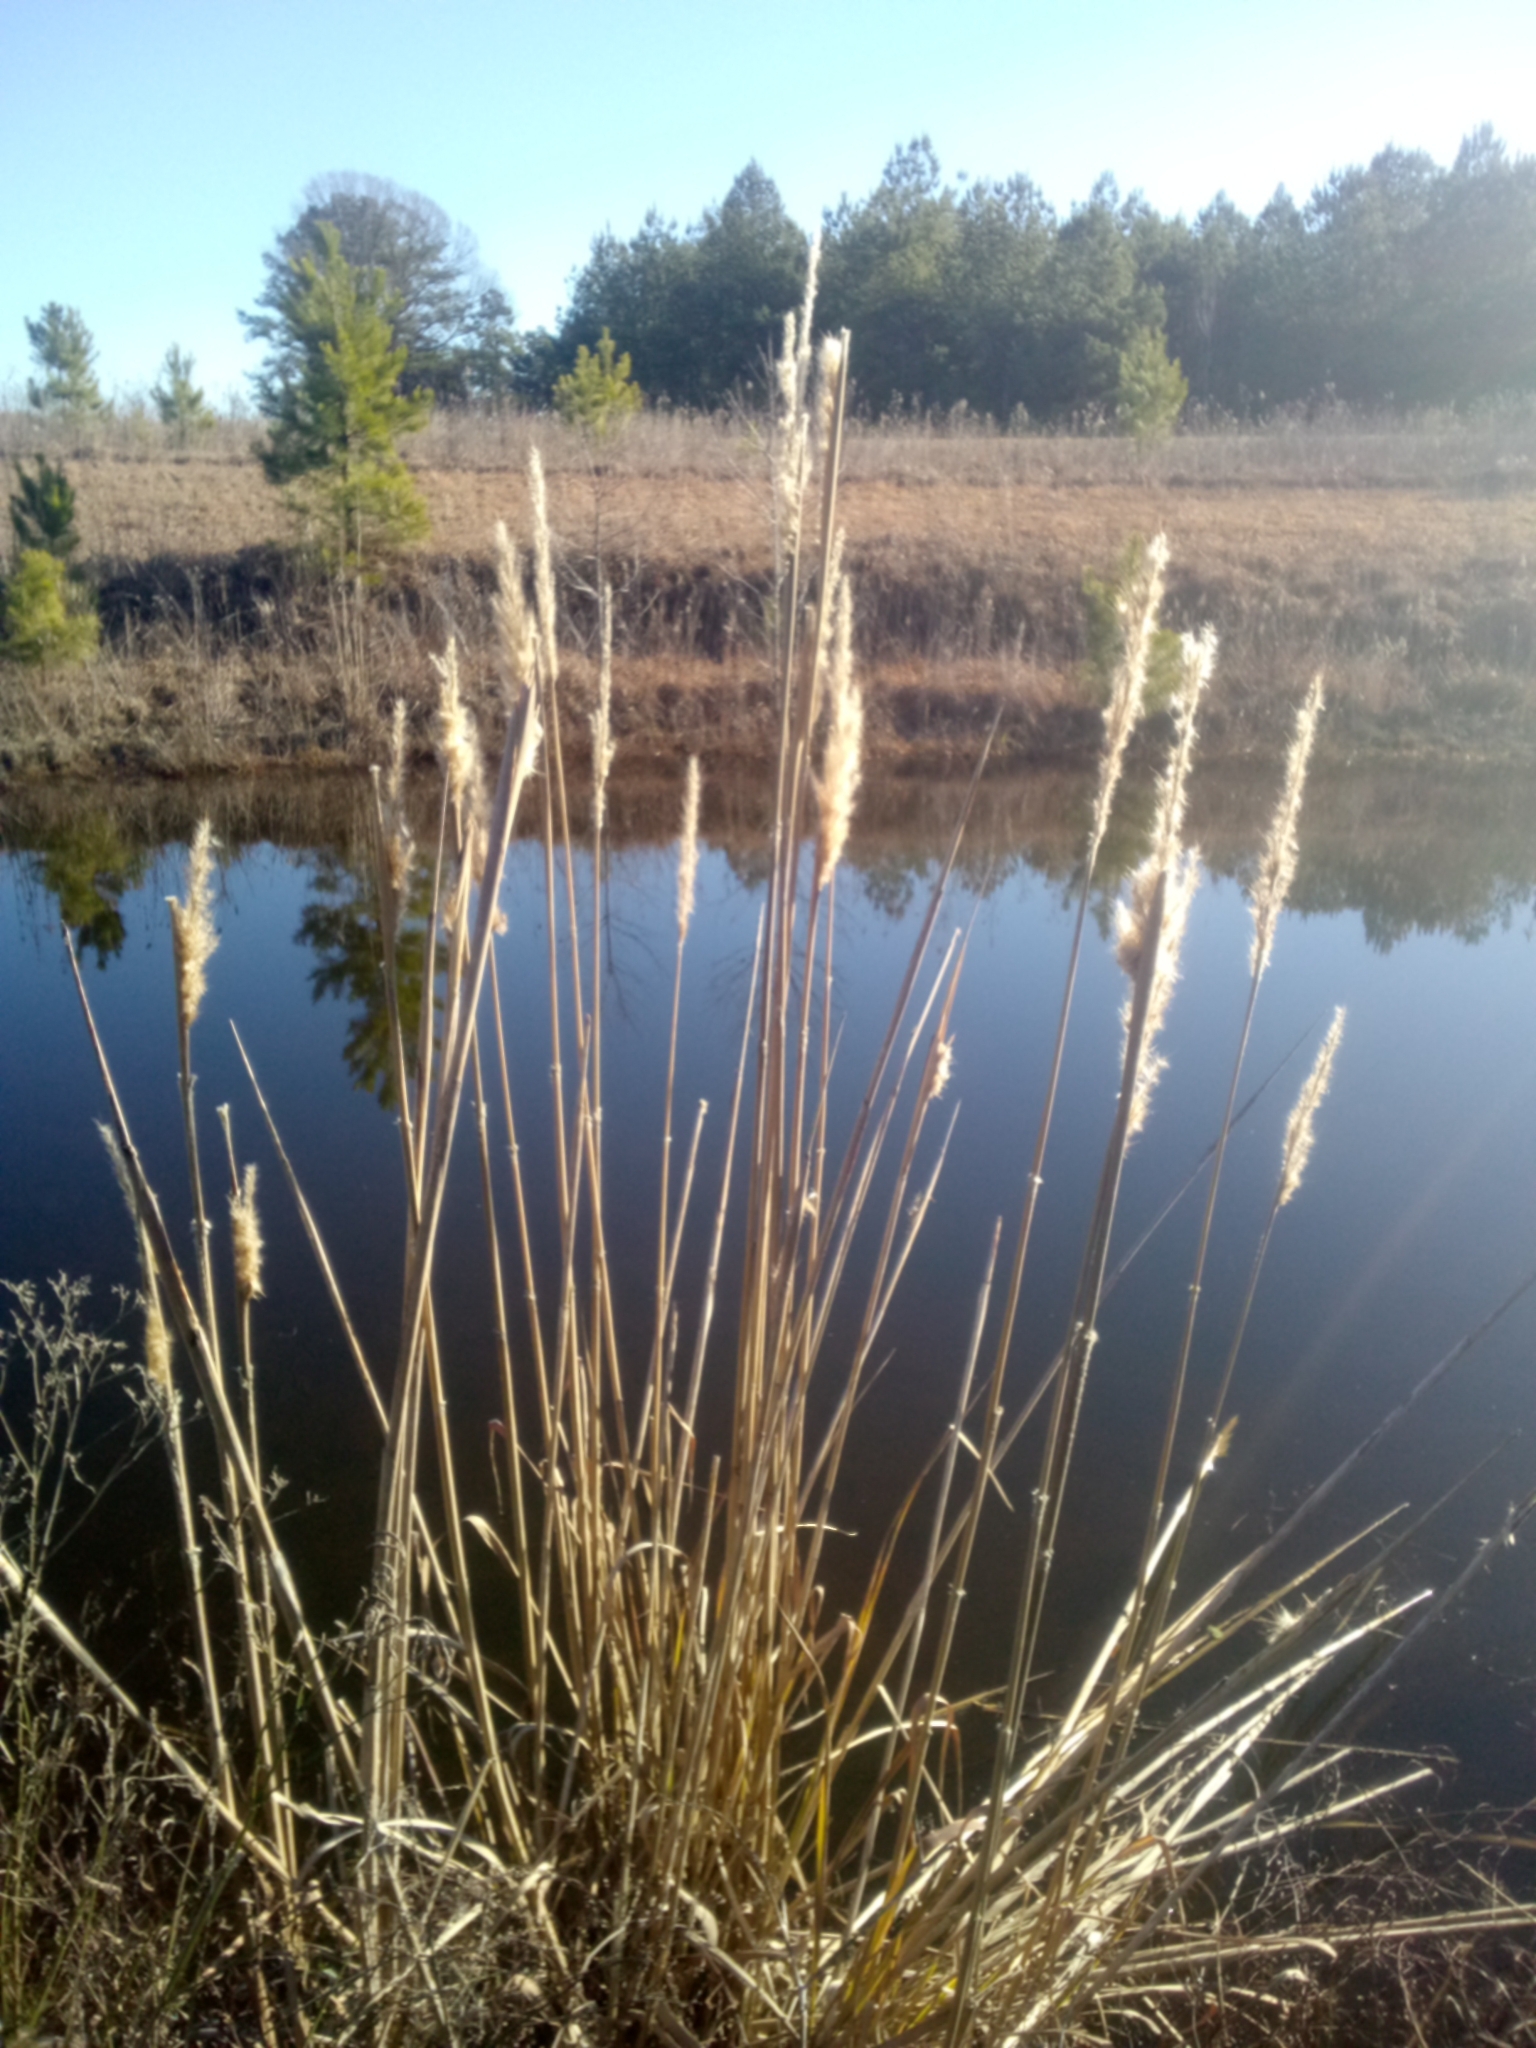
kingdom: Plantae
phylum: Tracheophyta
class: Liliopsida
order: Poales
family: Poaceae
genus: Erianthus
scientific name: Erianthus giganteus
